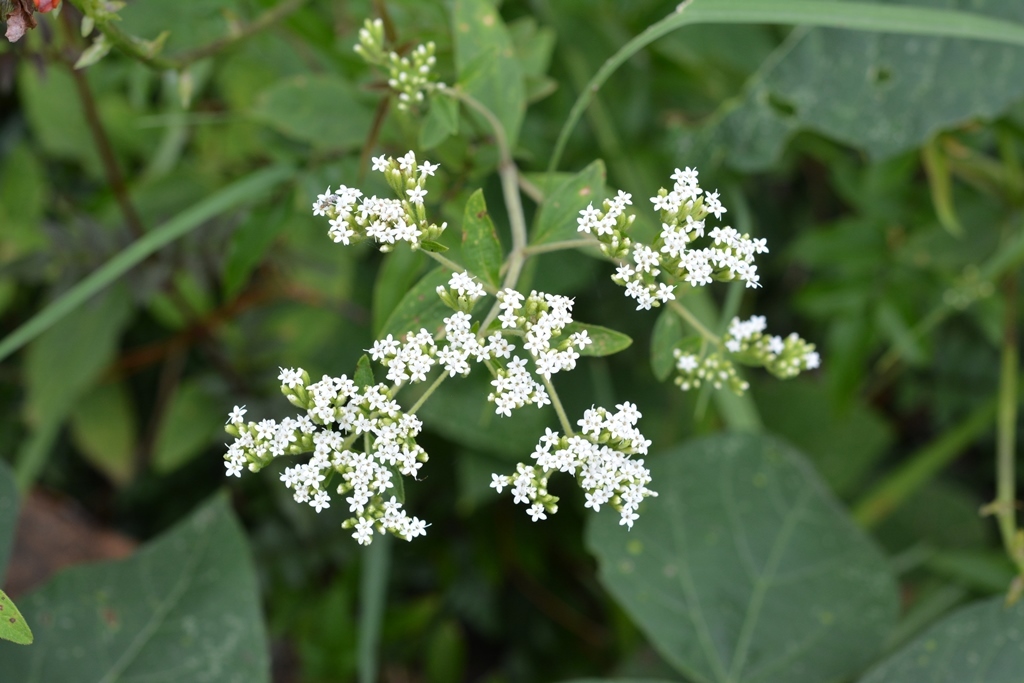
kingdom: Plantae
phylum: Tracheophyta
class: Magnoliopsida
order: Asterales
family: Asteraceae
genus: Stevia
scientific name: Stevia ovata
